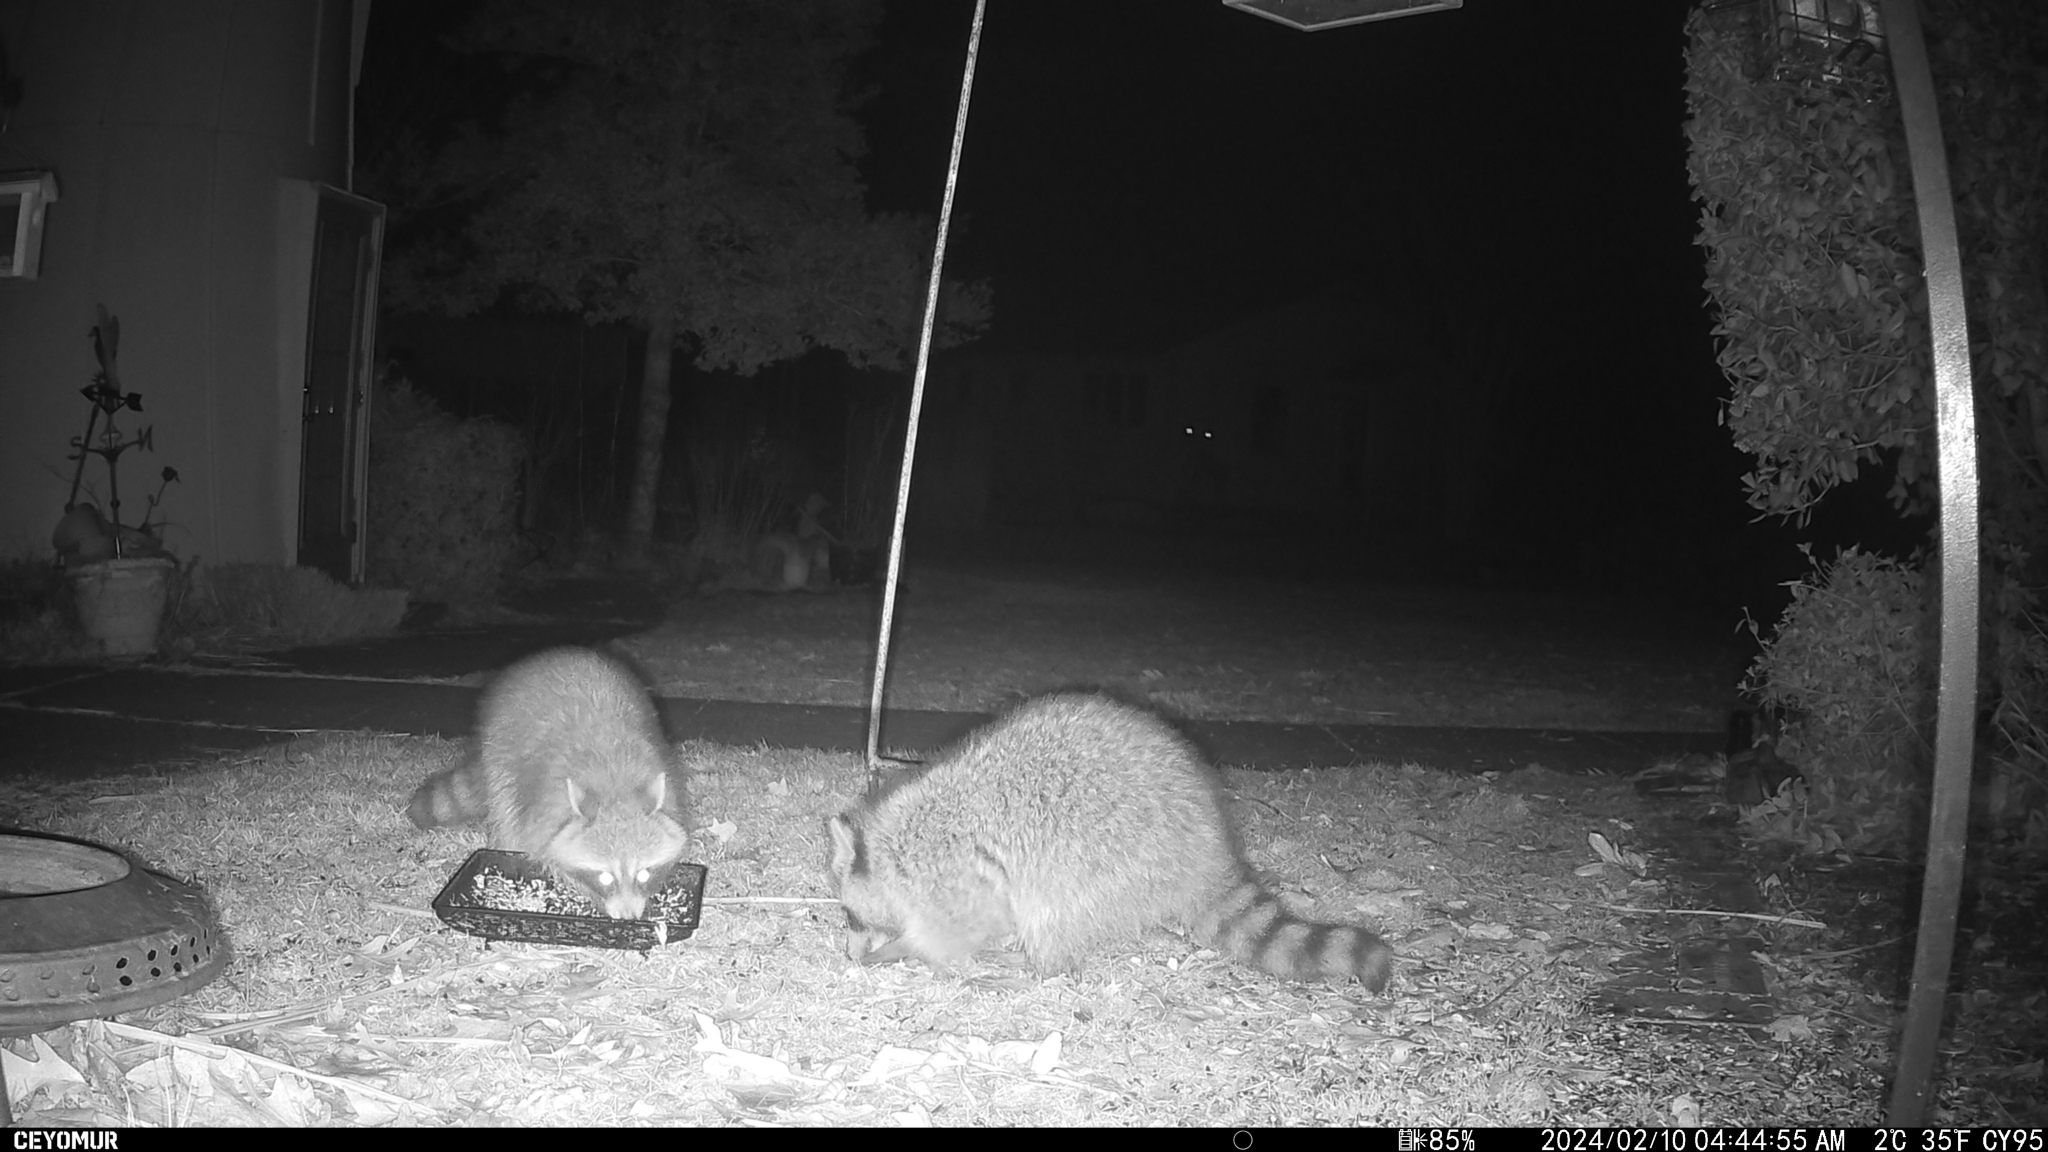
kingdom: Animalia
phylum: Chordata
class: Mammalia
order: Carnivora
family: Procyonidae
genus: Procyon
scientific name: Procyon lotor
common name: Raccoon
